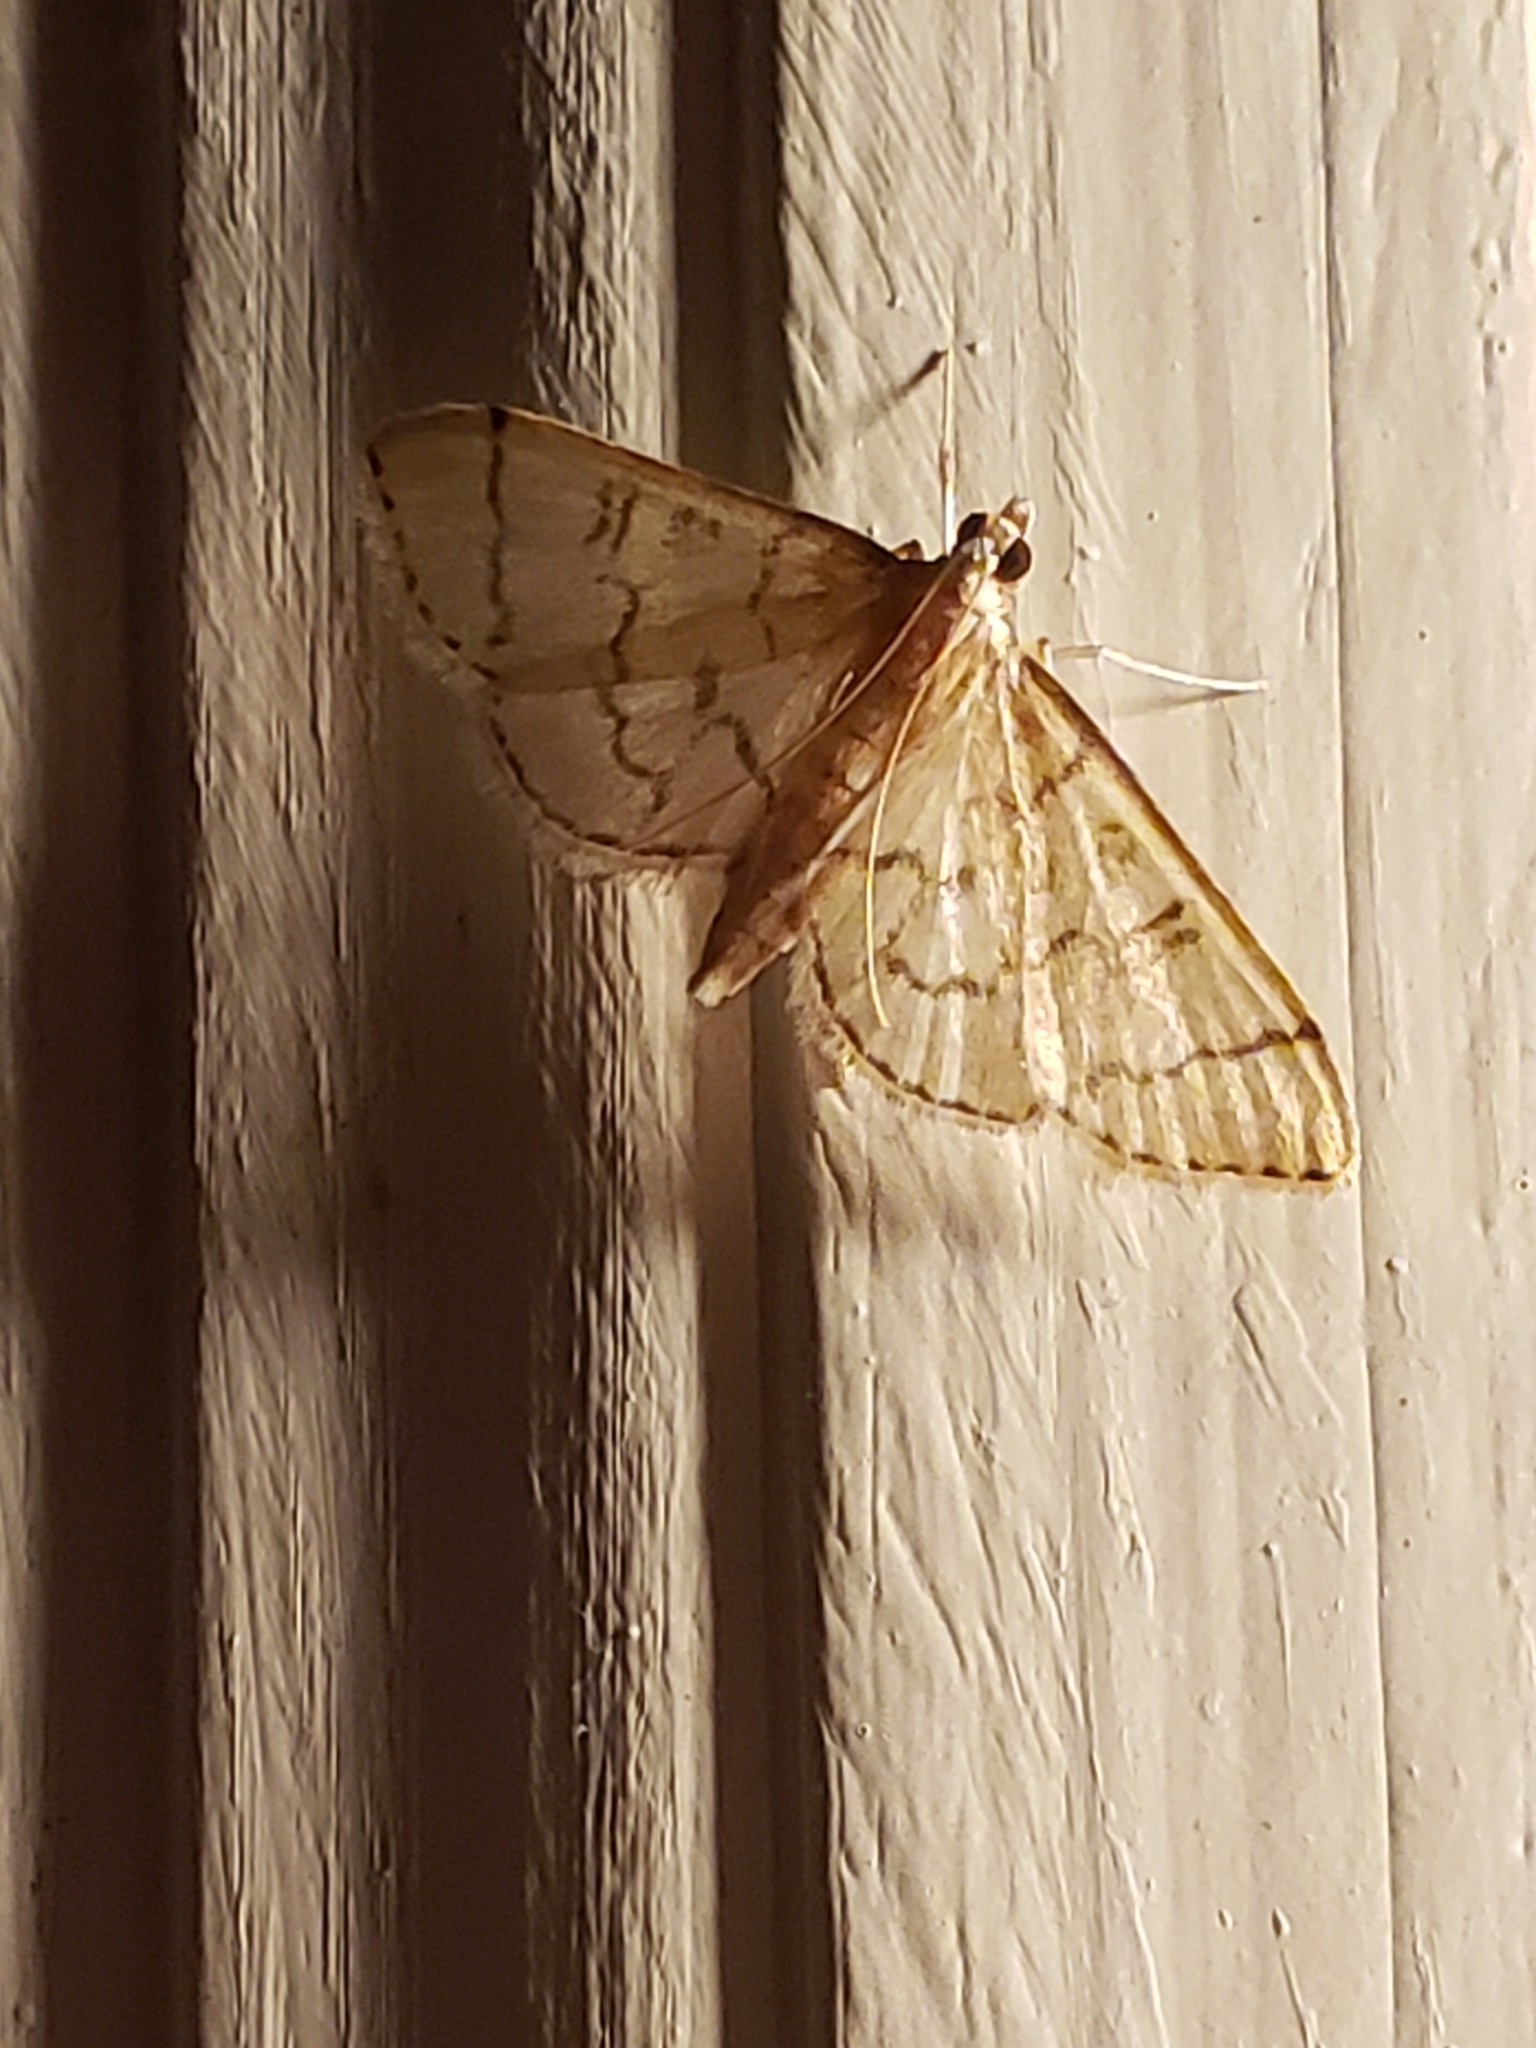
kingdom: Animalia
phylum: Arthropoda
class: Insecta
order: Lepidoptera
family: Crambidae
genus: Lamprosema
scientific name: Lamprosema Blepharomastix ranalis
